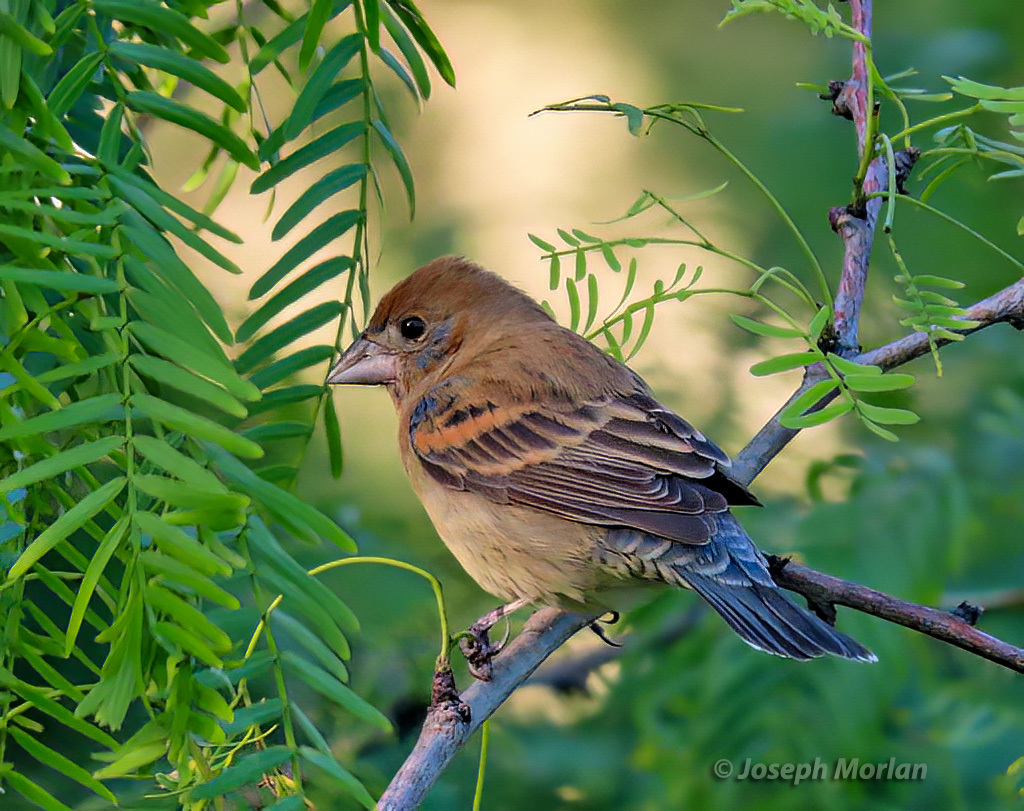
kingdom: Animalia
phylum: Chordata
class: Aves
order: Passeriformes
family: Cardinalidae
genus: Passerina
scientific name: Passerina caerulea
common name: Blue grosbeak
